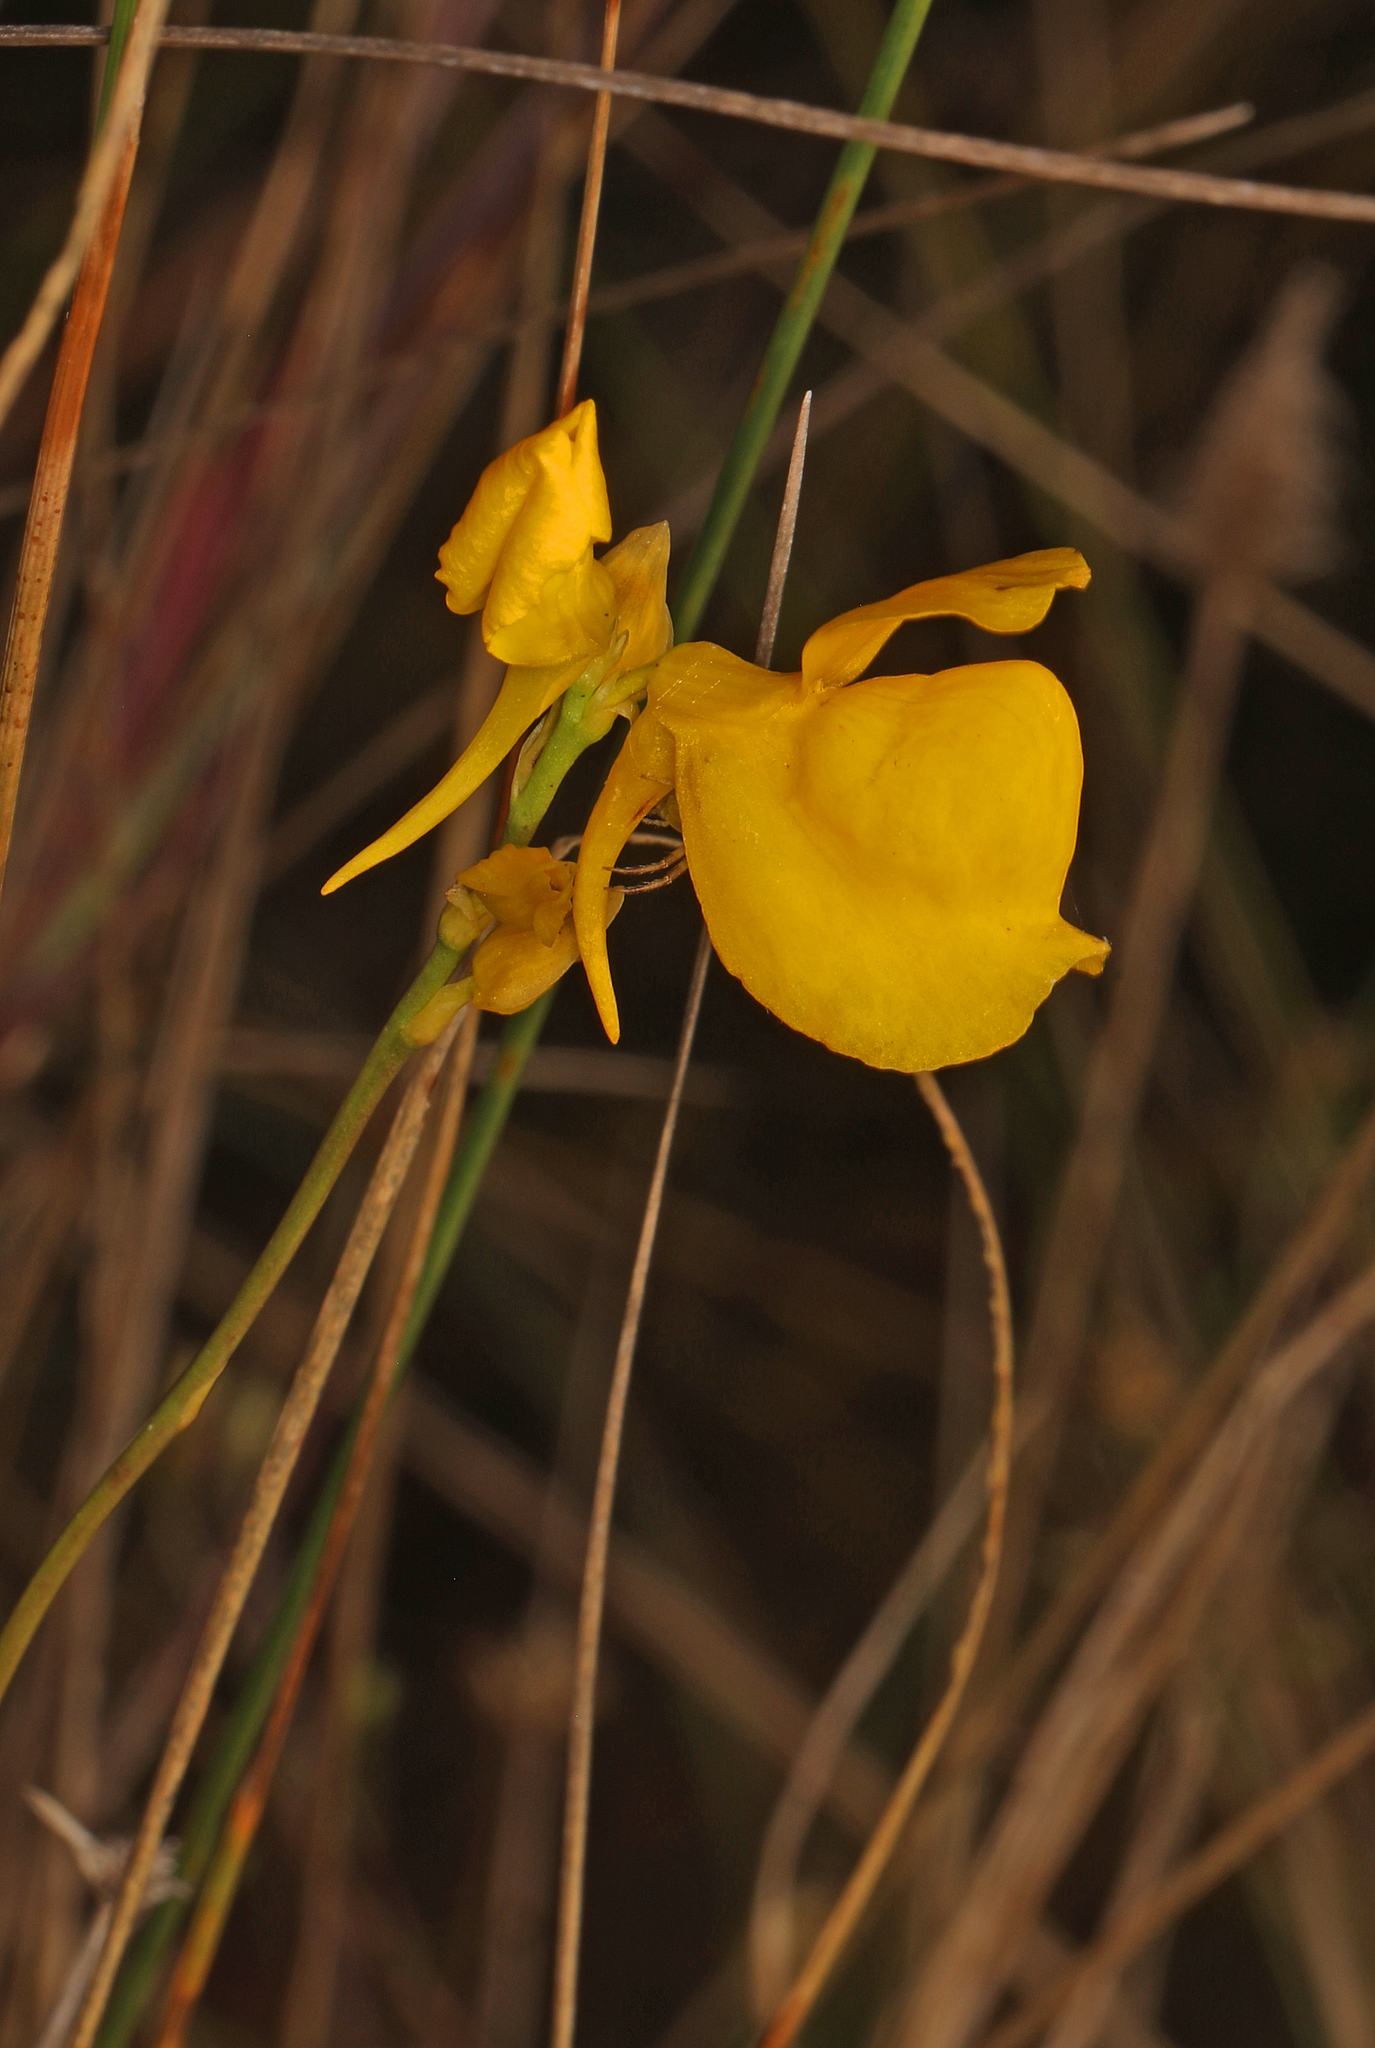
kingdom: Plantae
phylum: Tracheophyta
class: Magnoliopsida
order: Lamiales
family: Lentibulariaceae
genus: Utricularia
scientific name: Utricularia cornuta
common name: Horned bladderwort
